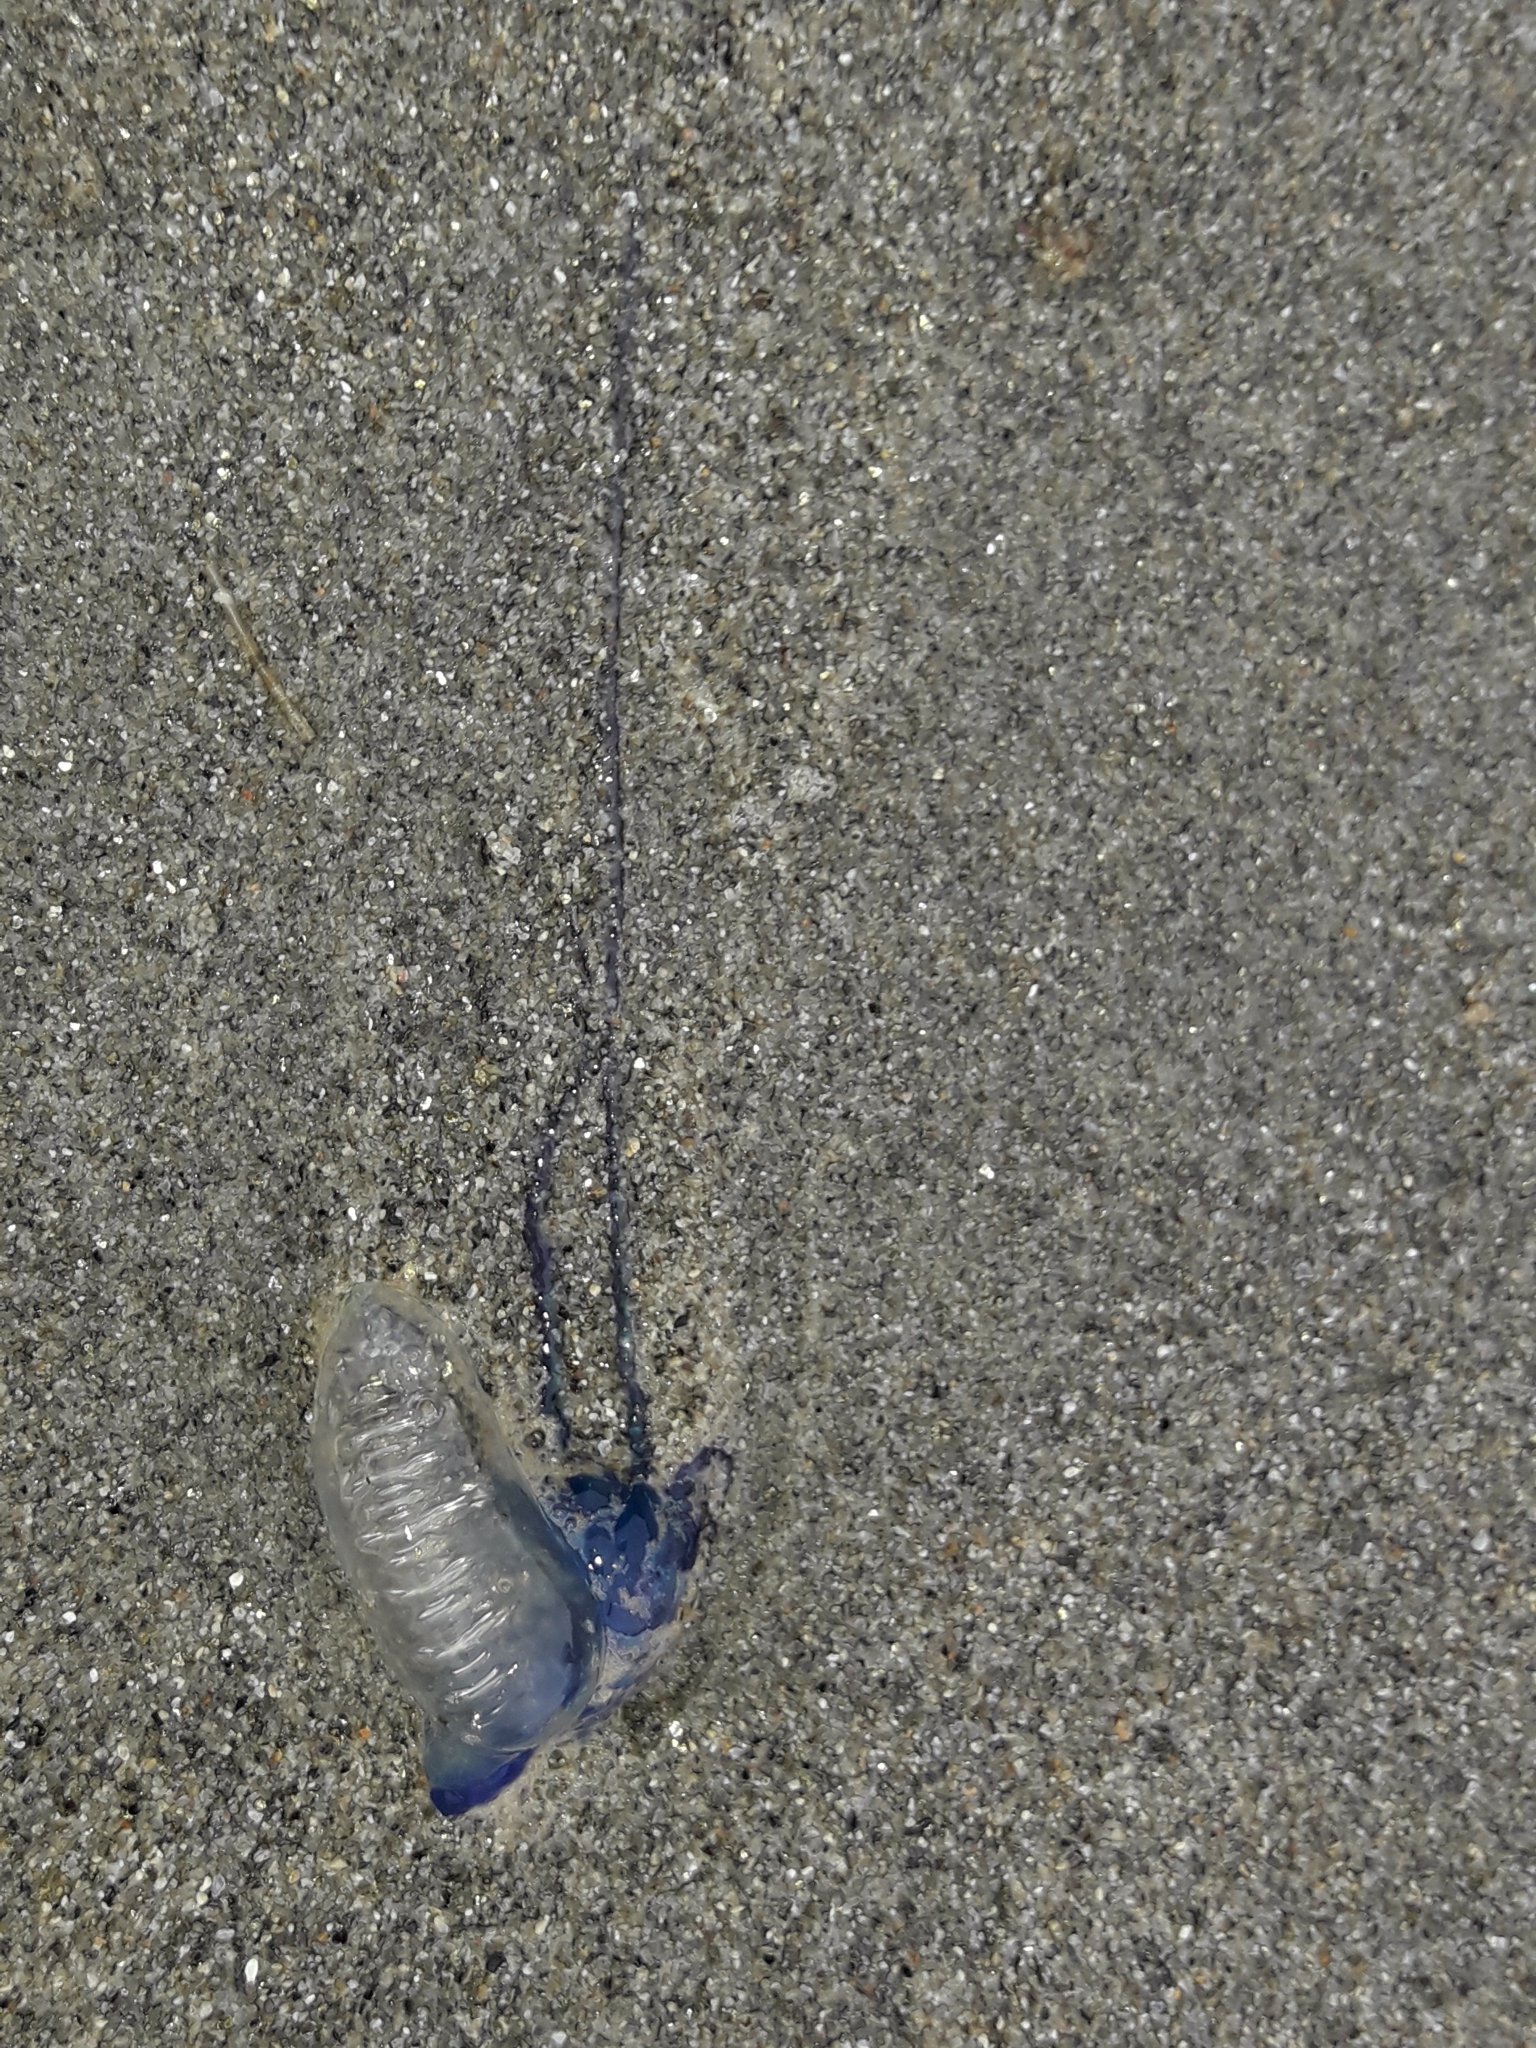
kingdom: Animalia
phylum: Cnidaria
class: Hydrozoa
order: Siphonophorae
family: Physaliidae
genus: Physalia
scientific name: Physalia physalis
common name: Portuguese man-of-war
